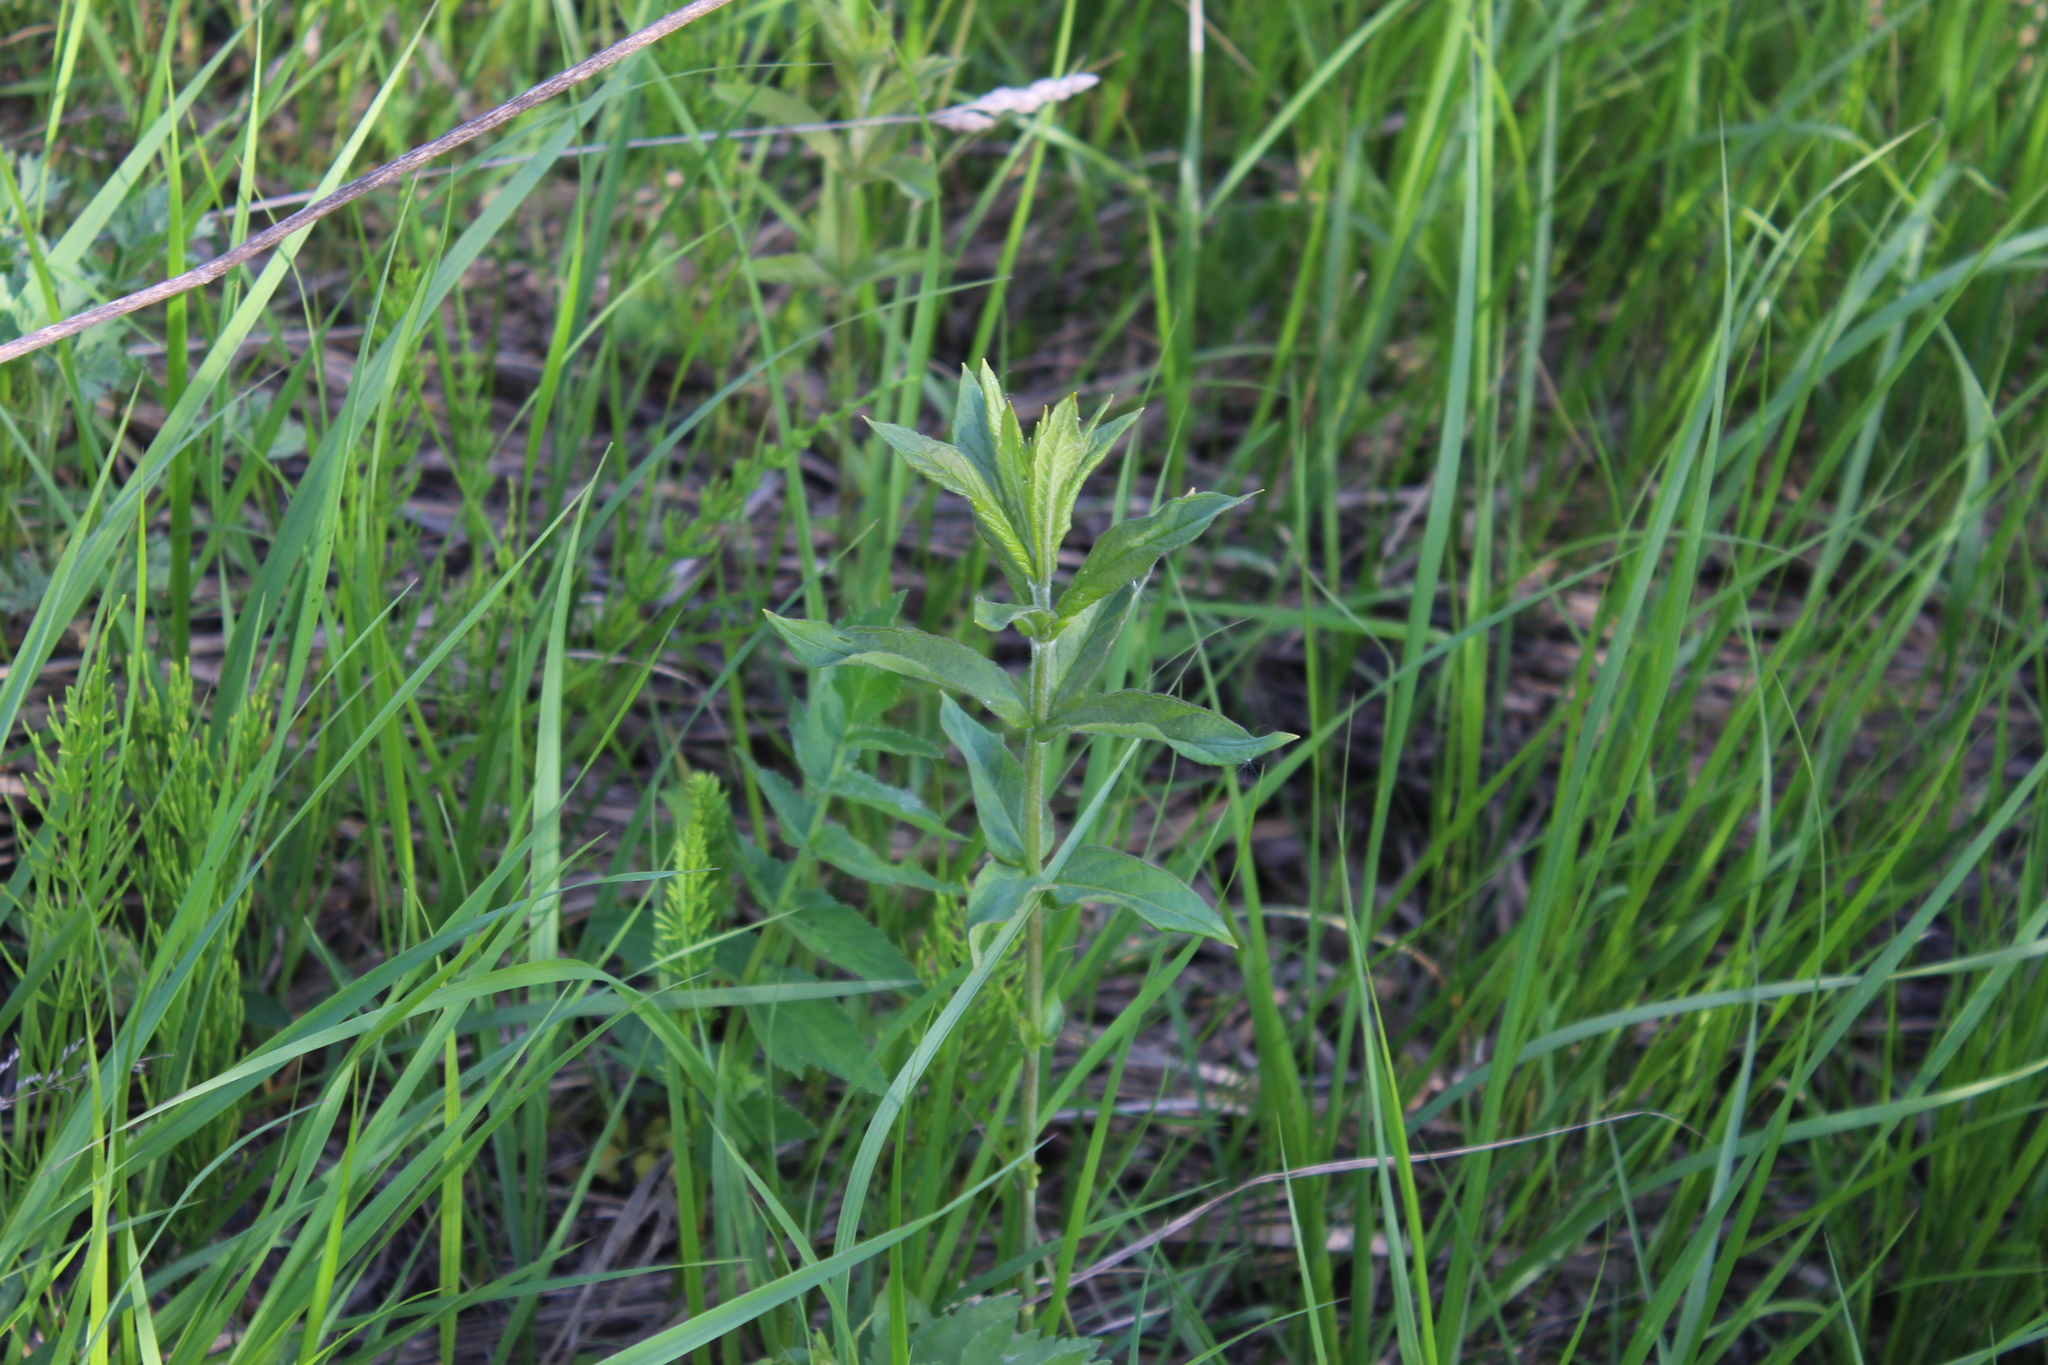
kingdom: Plantae
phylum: Tracheophyta
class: Magnoliopsida
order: Ericales
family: Primulaceae
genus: Lysimachia
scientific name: Lysimachia vulgaris
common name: Yellow loosestrife
